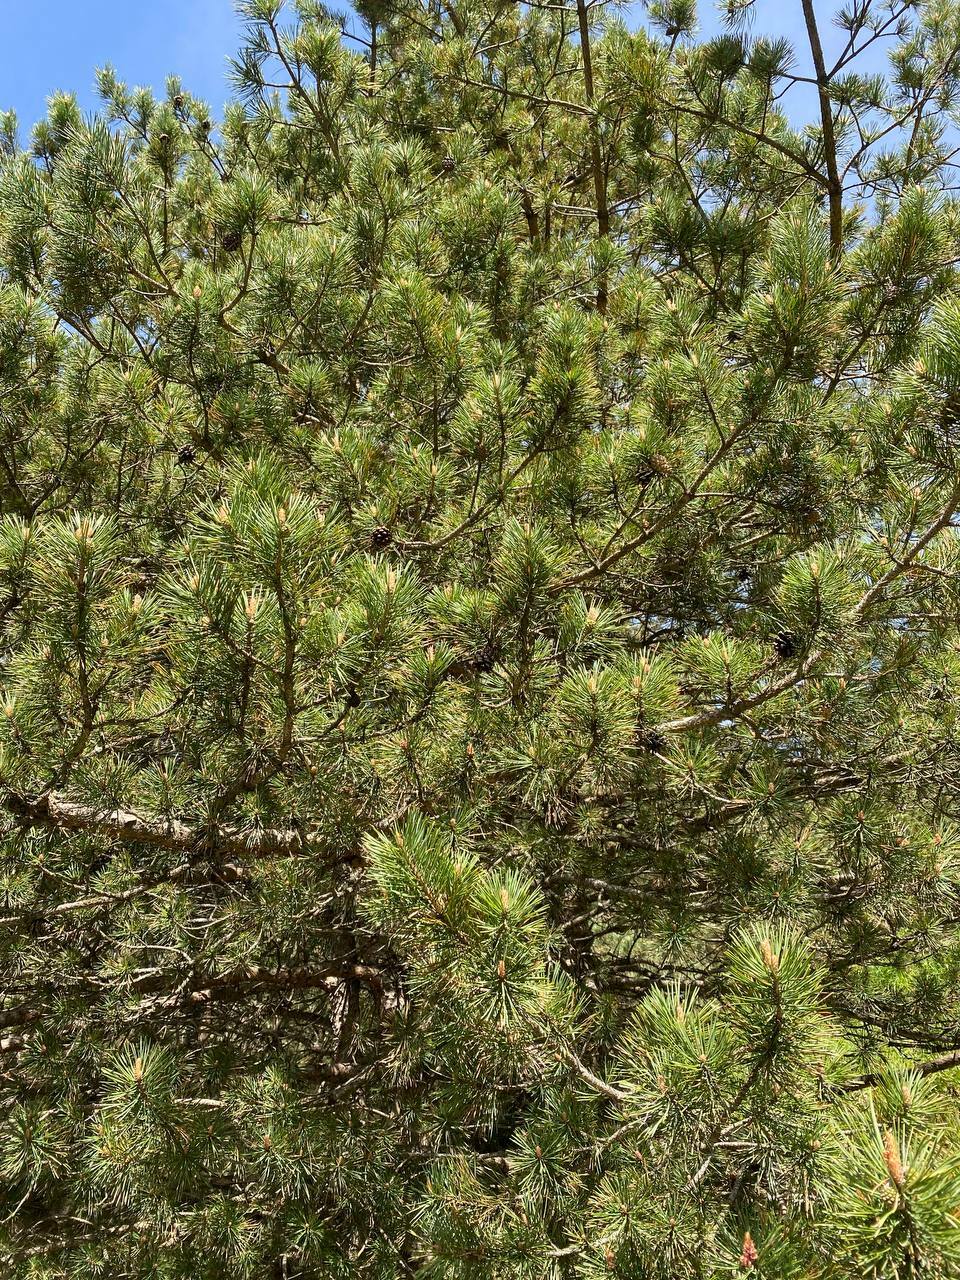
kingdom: Plantae
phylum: Tracheophyta
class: Pinopsida
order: Pinales
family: Pinaceae
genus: Pinus
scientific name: Pinus sylvestris
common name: Scots pine
